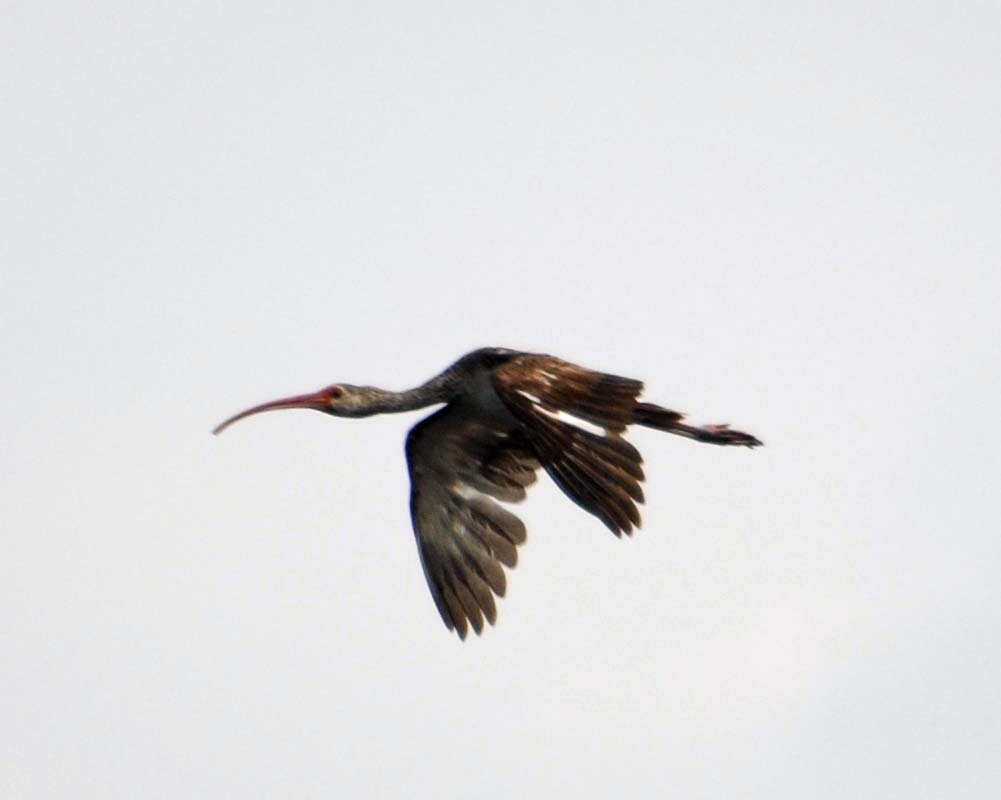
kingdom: Animalia
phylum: Chordata
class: Aves
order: Pelecaniformes
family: Threskiornithidae
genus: Eudocimus
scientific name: Eudocimus albus
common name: White ibis
